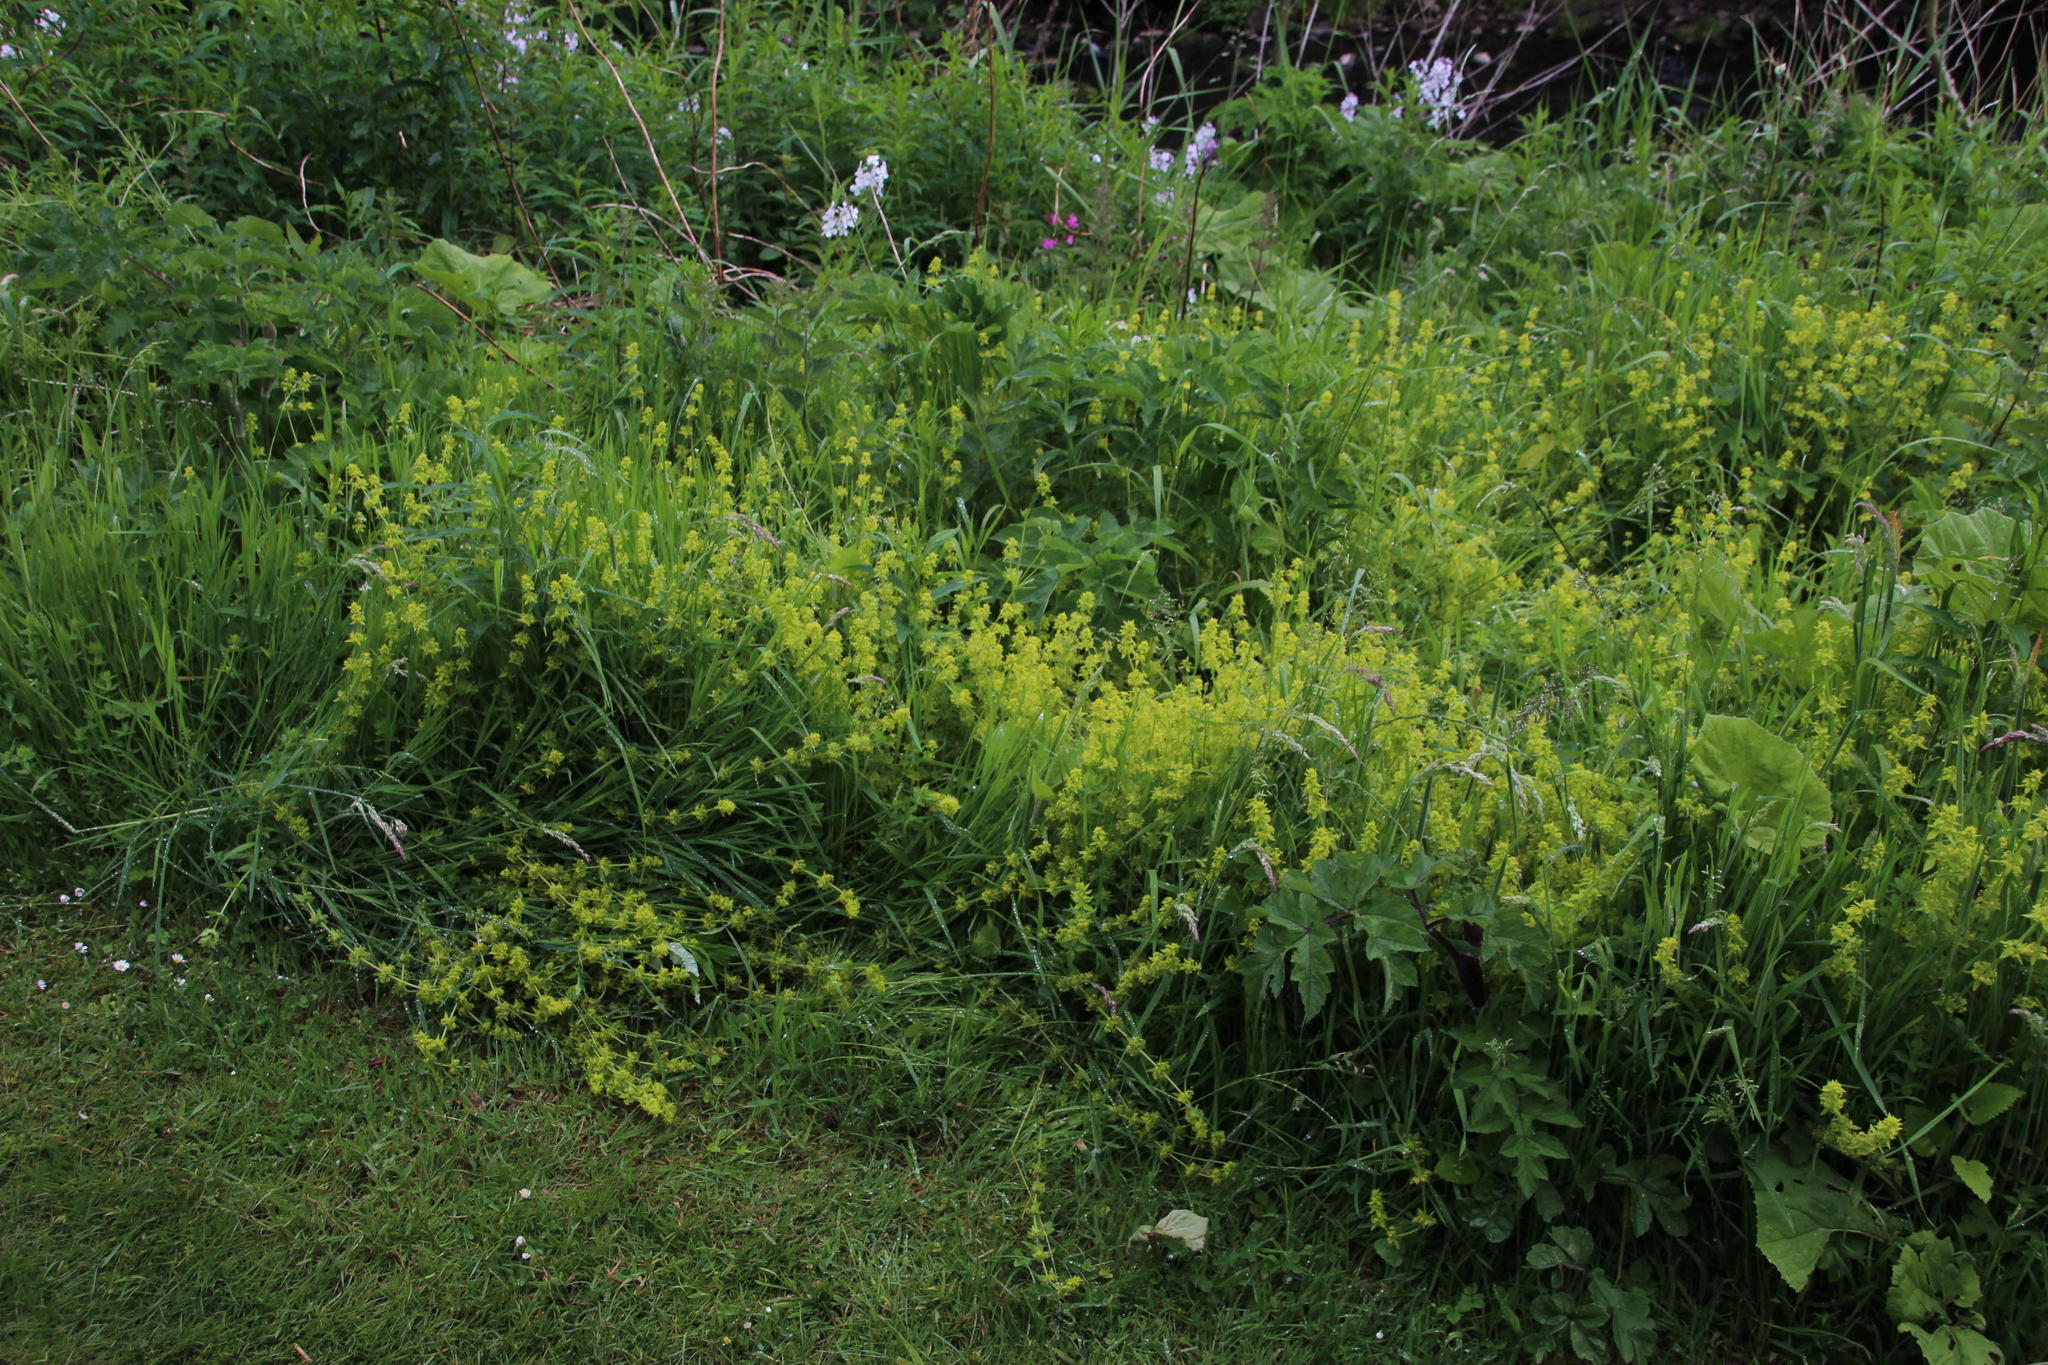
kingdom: Plantae
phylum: Tracheophyta
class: Magnoliopsida
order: Gentianales
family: Rubiaceae
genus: Cruciata
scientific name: Cruciata laevipes
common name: Crosswort
